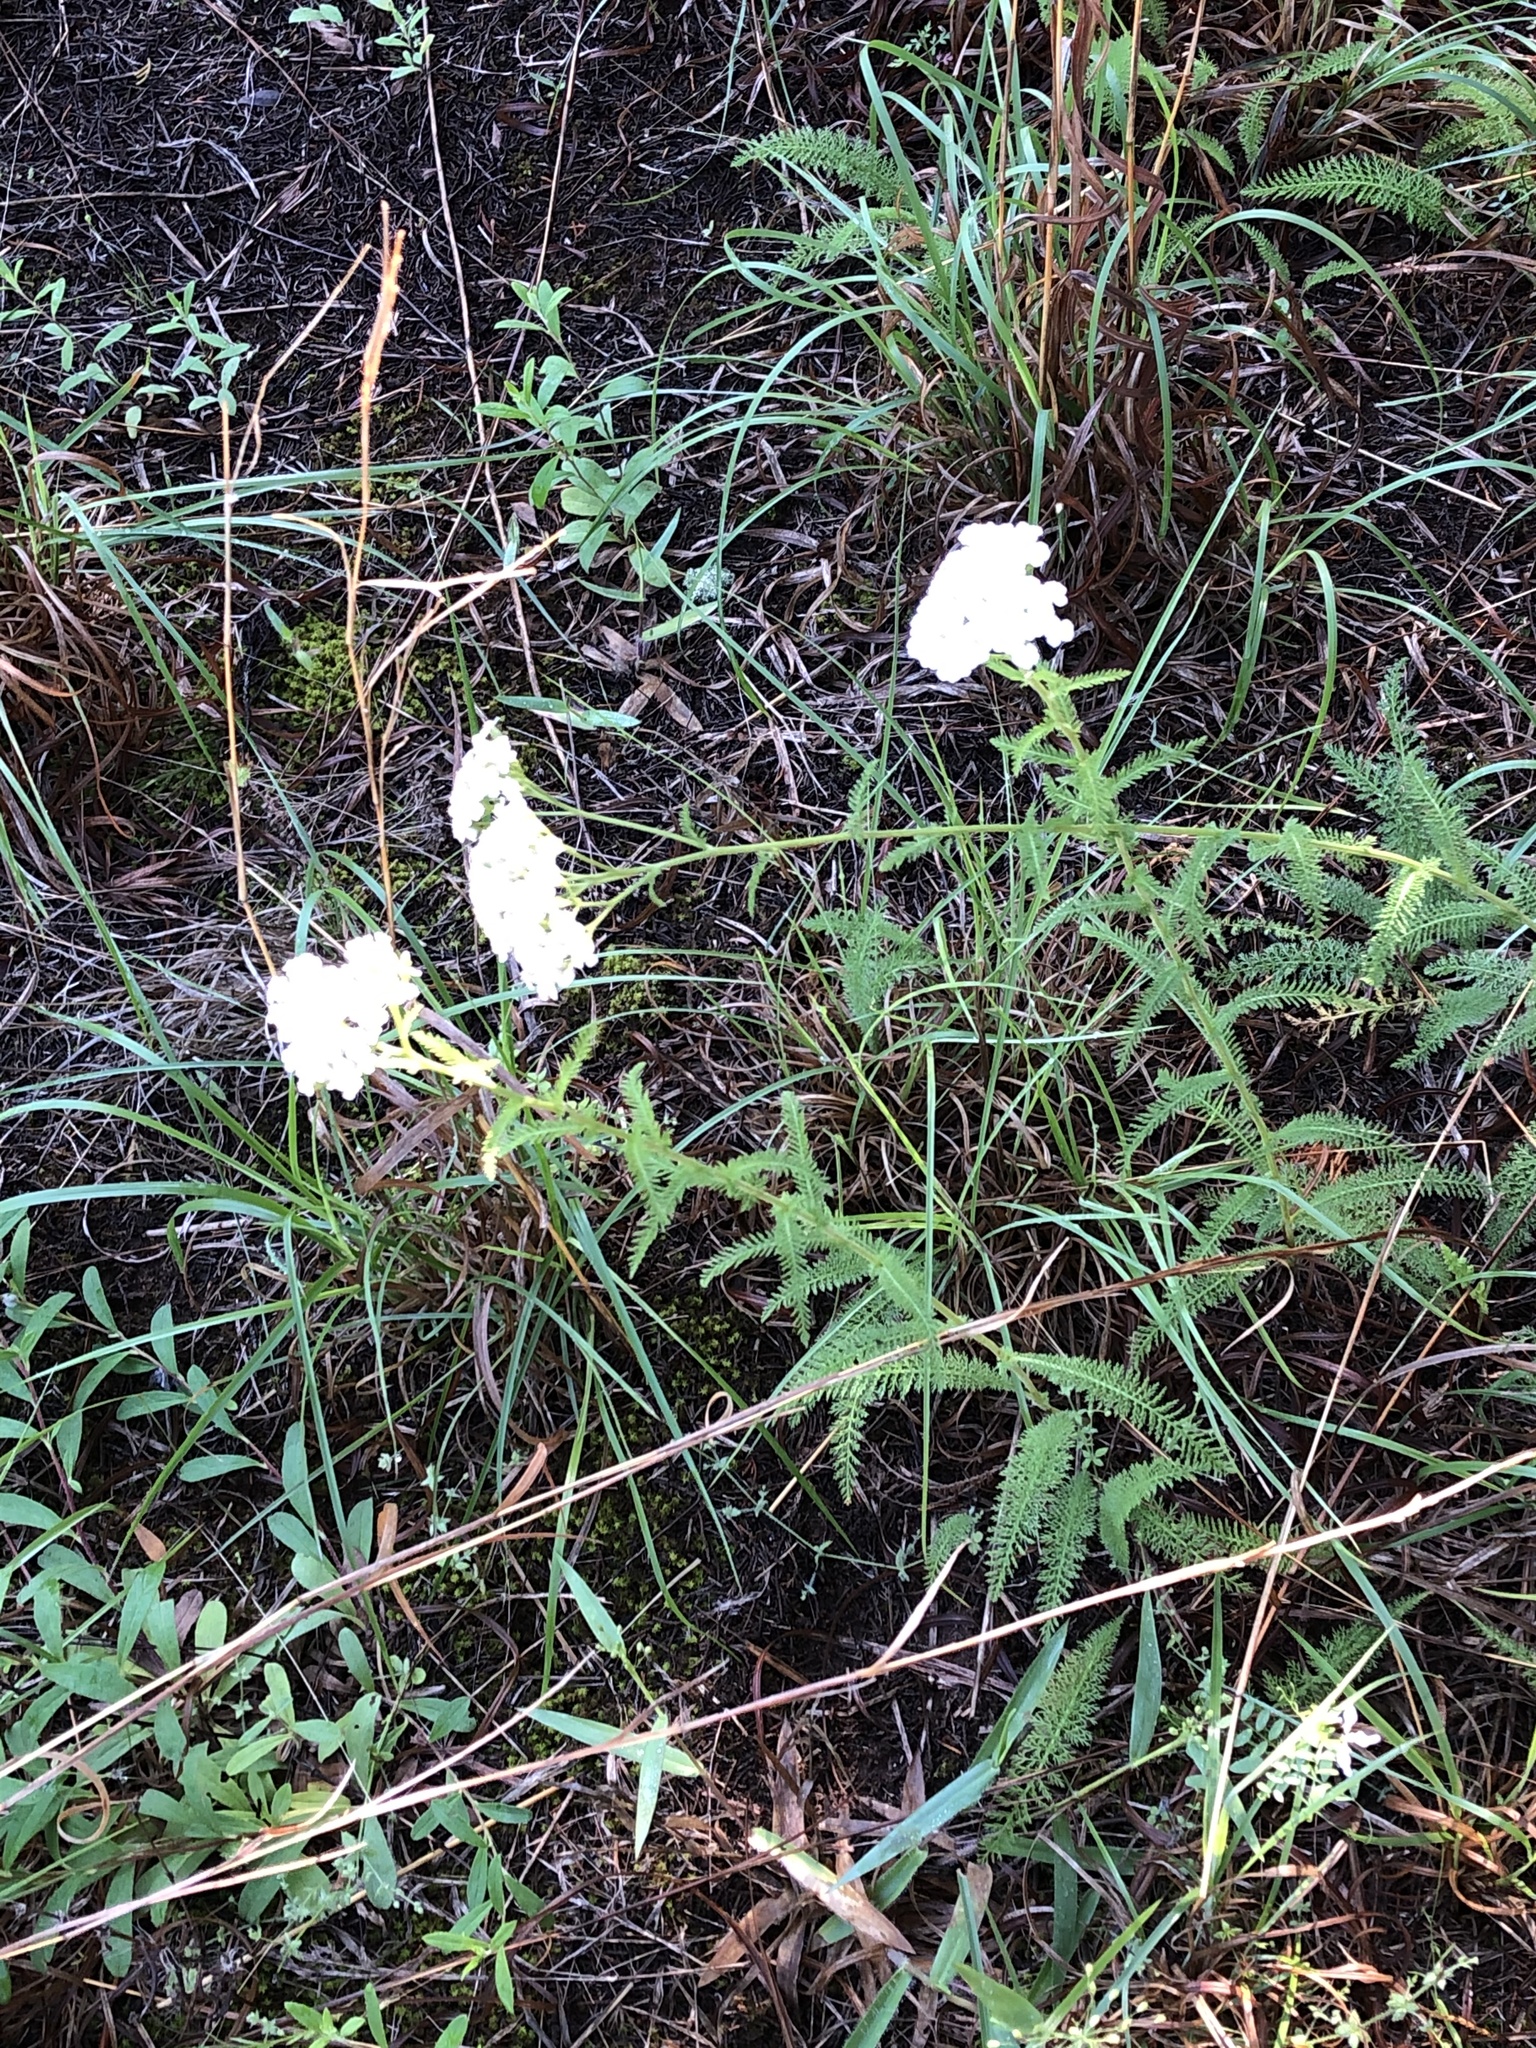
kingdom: Plantae
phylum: Tracheophyta
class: Magnoliopsida
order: Asterales
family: Asteraceae
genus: Achillea
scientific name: Achillea millefolium
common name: Yarrow
